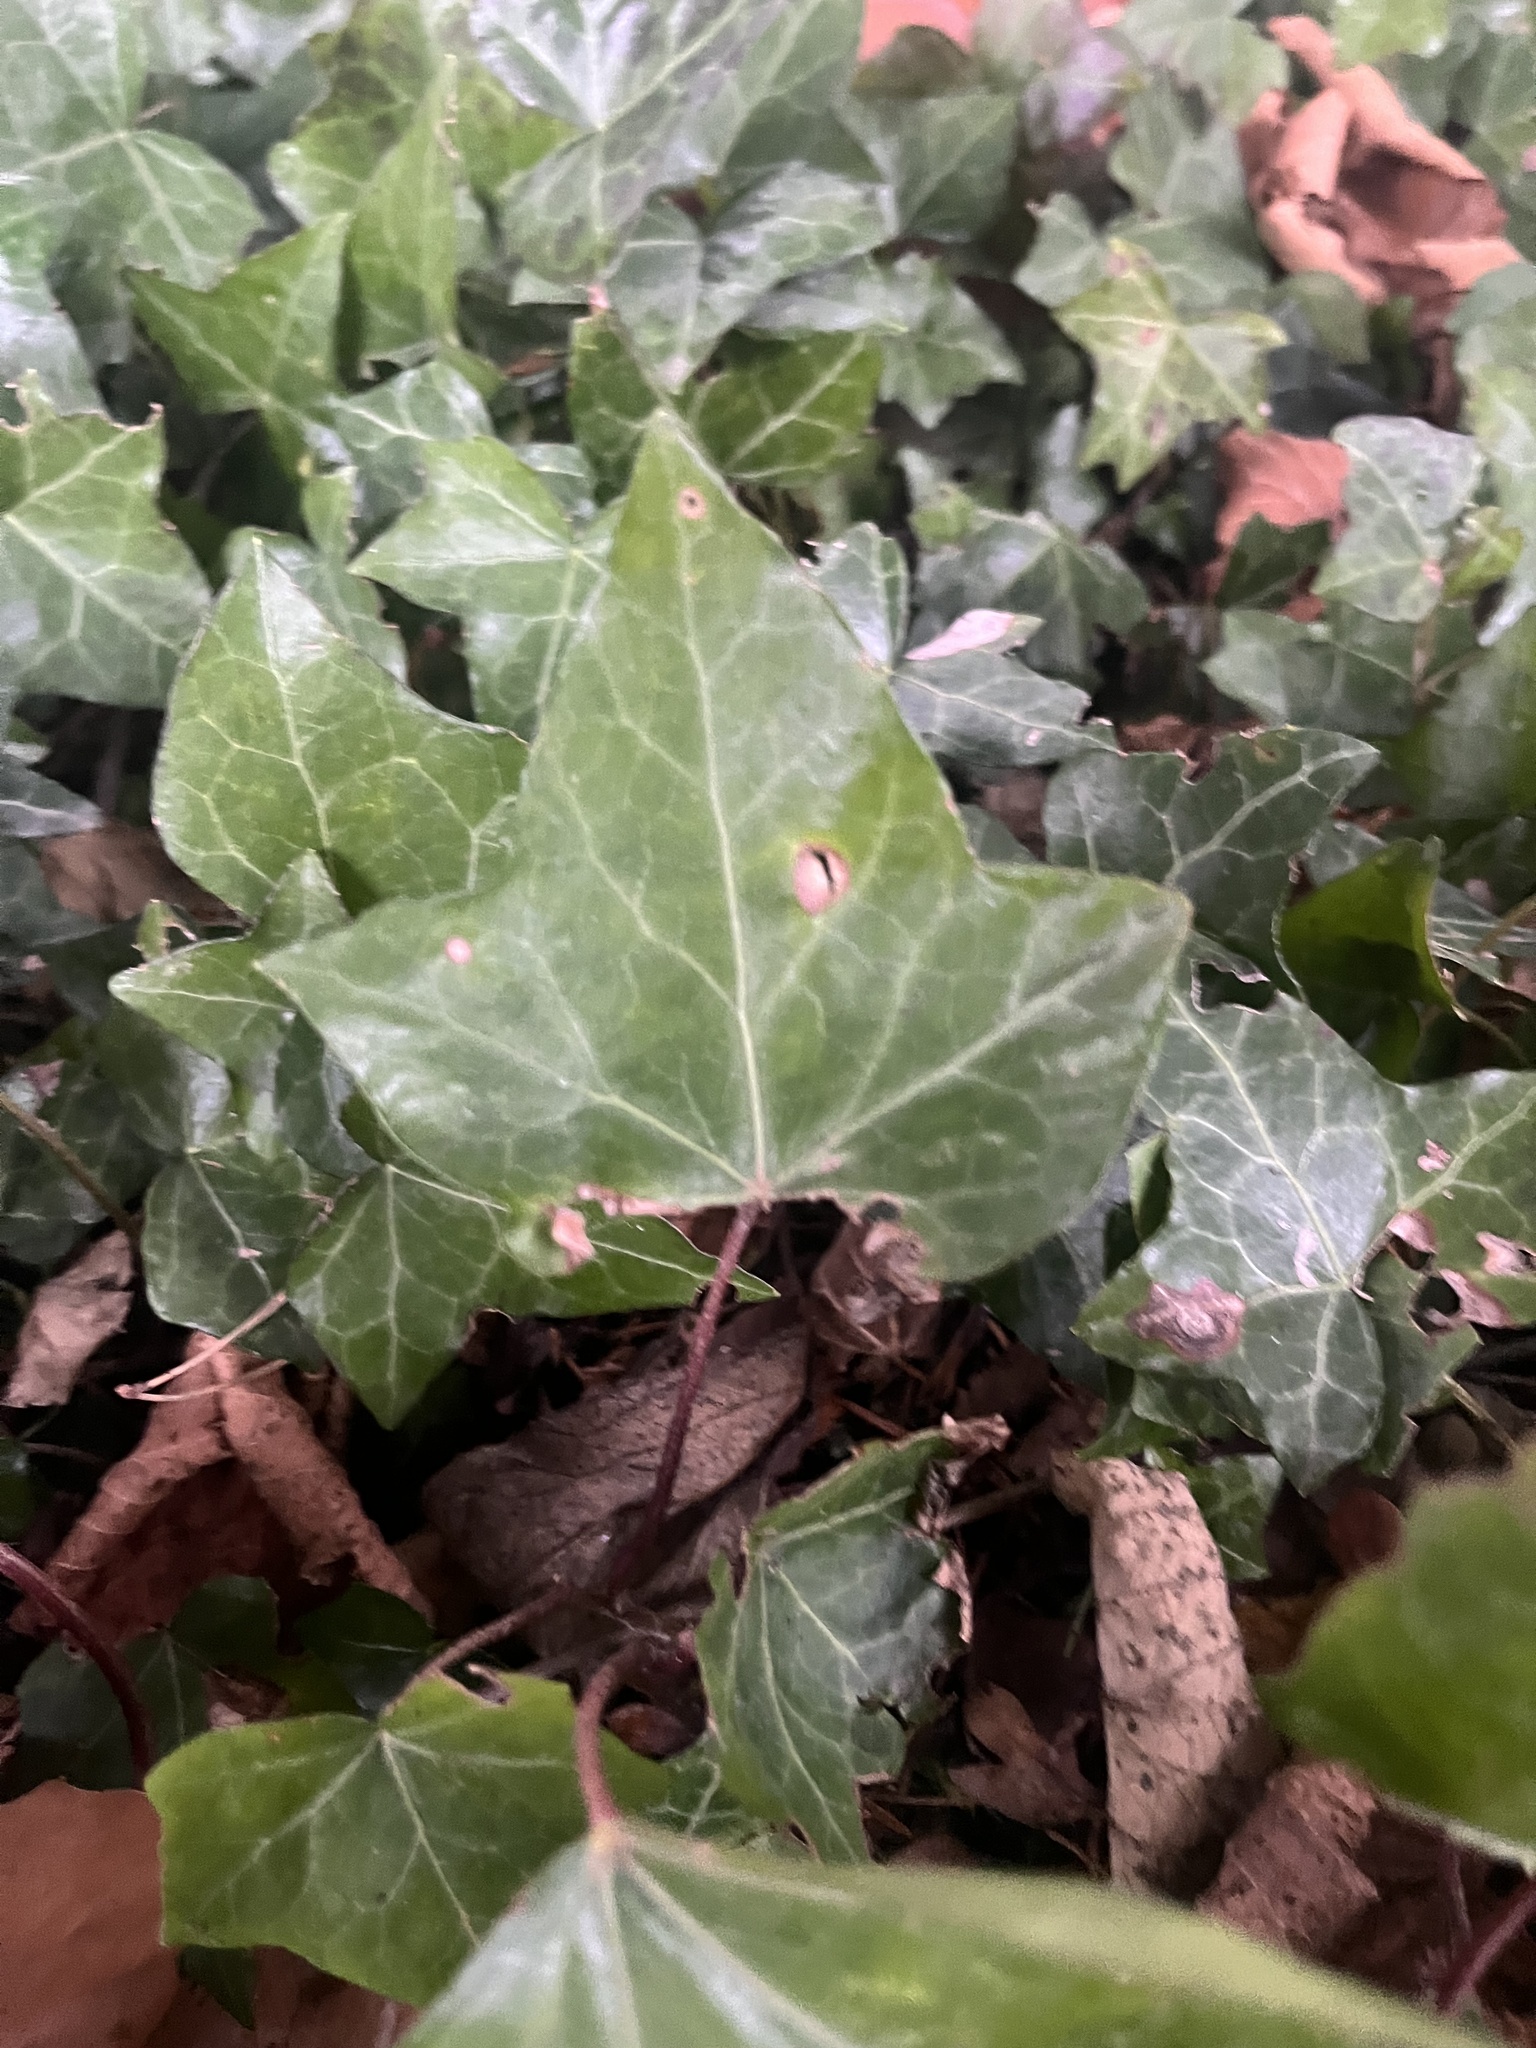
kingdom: Plantae
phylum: Tracheophyta
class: Magnoliopsida
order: Apiales
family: Araliaceae
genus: Hedera
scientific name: Hedera helix
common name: Ivy
